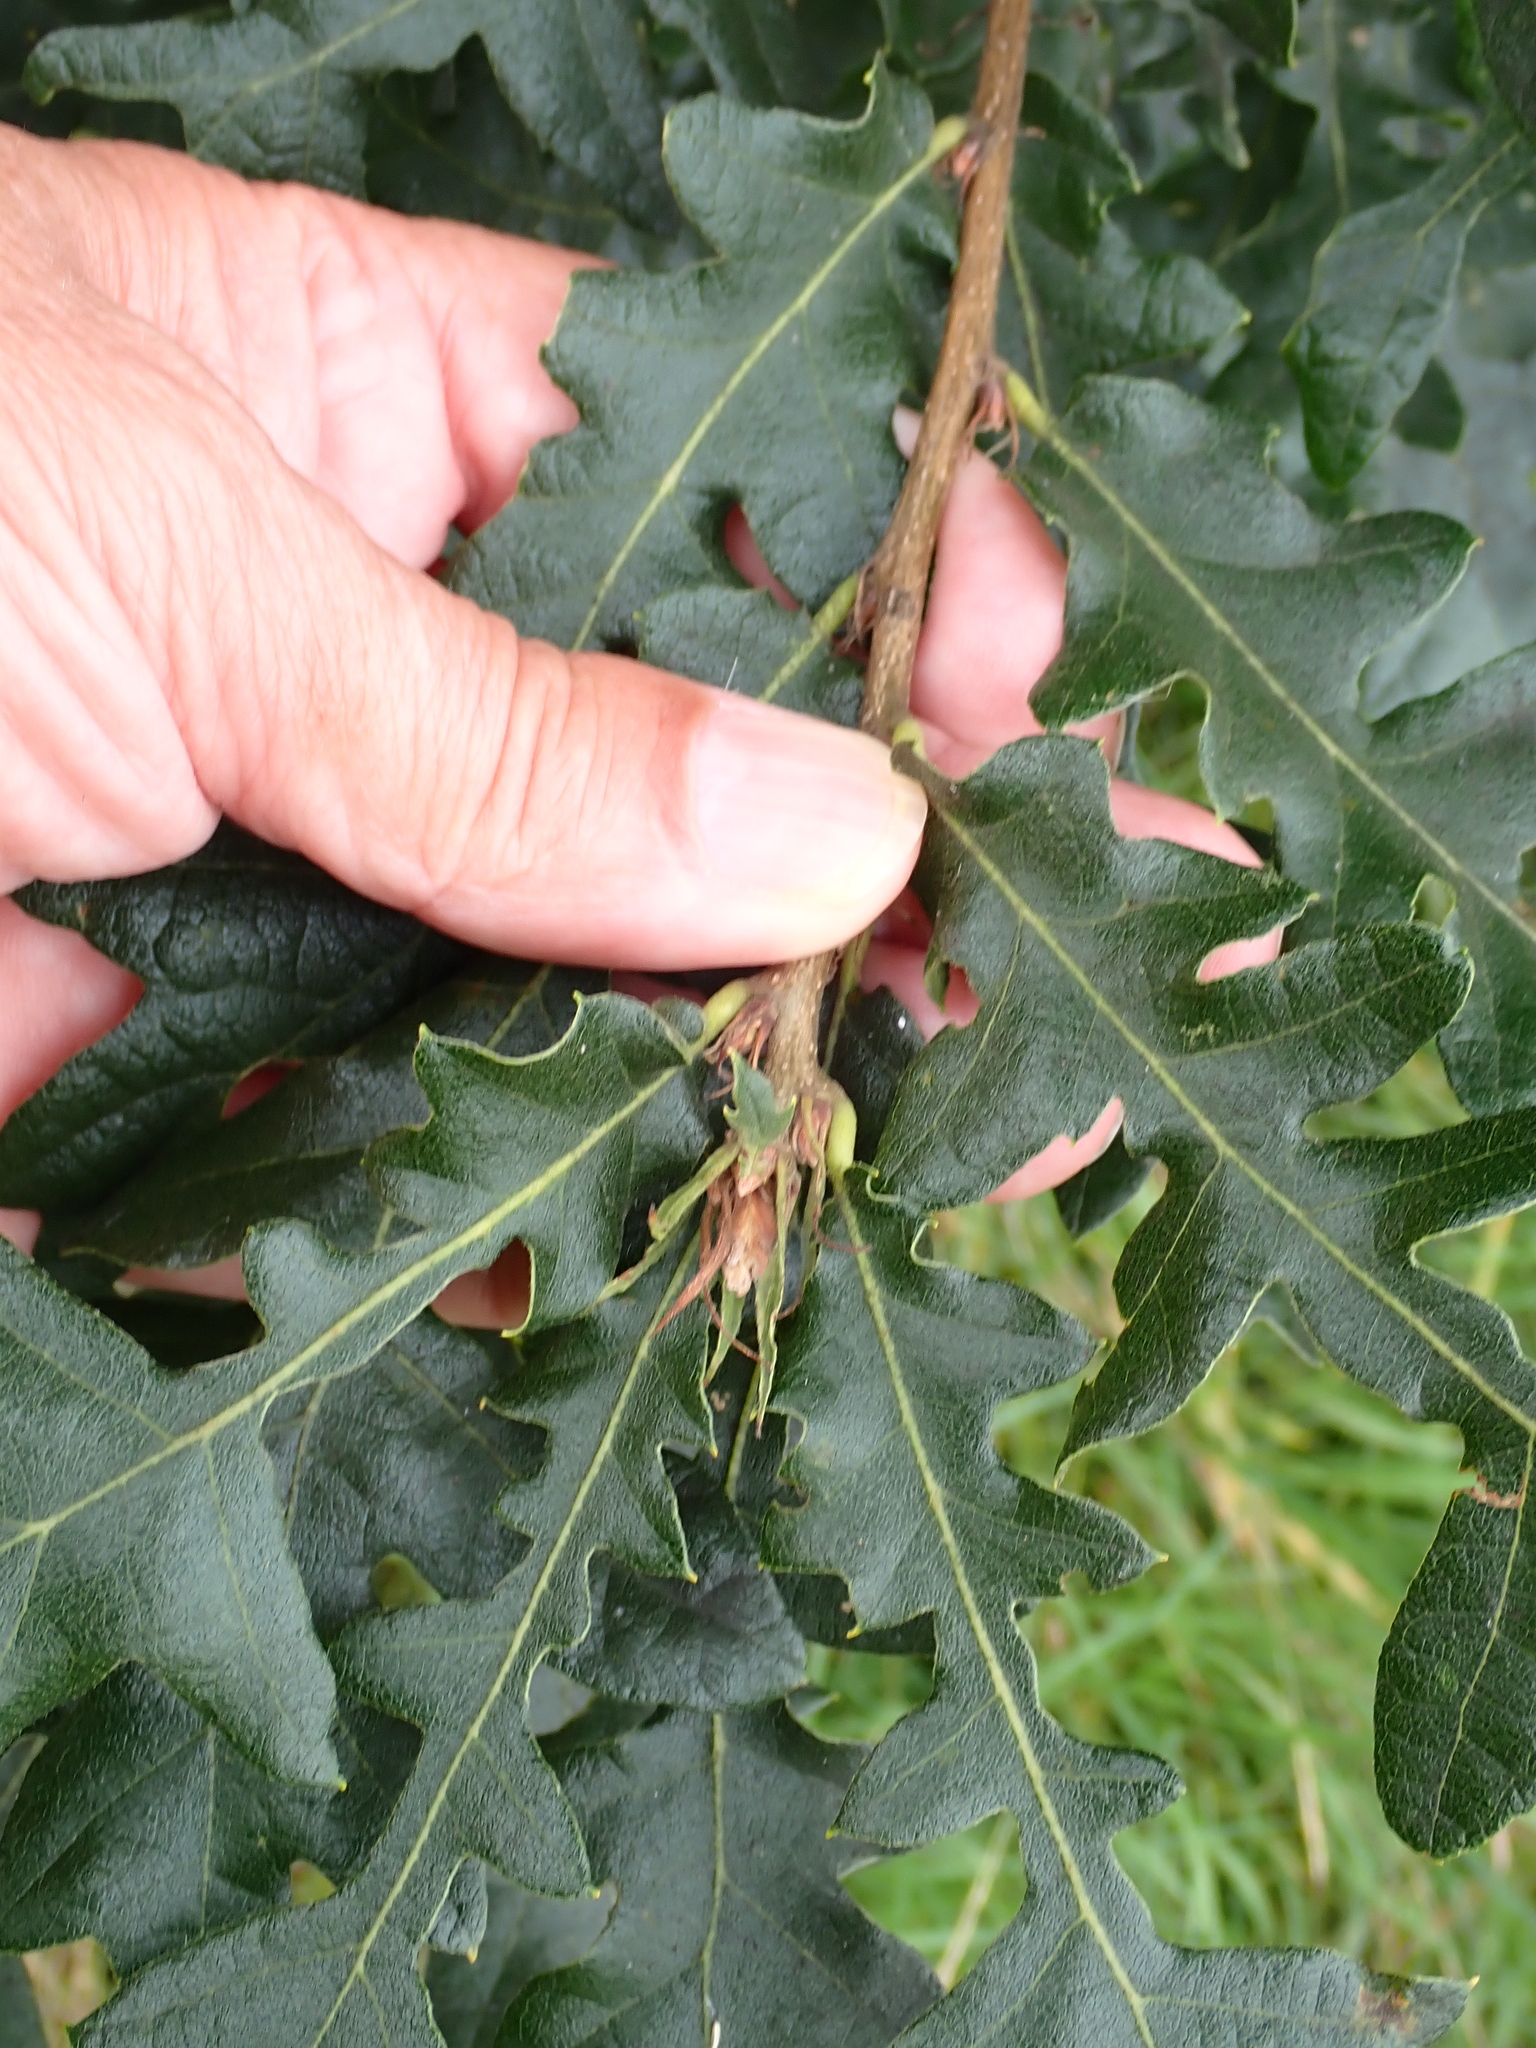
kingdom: Plantae
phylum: Tracheophyta
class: Magnoliopsida
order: Fagales
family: Fagaceae
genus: Quercus
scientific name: Quercus cerris
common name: Turkey oak
